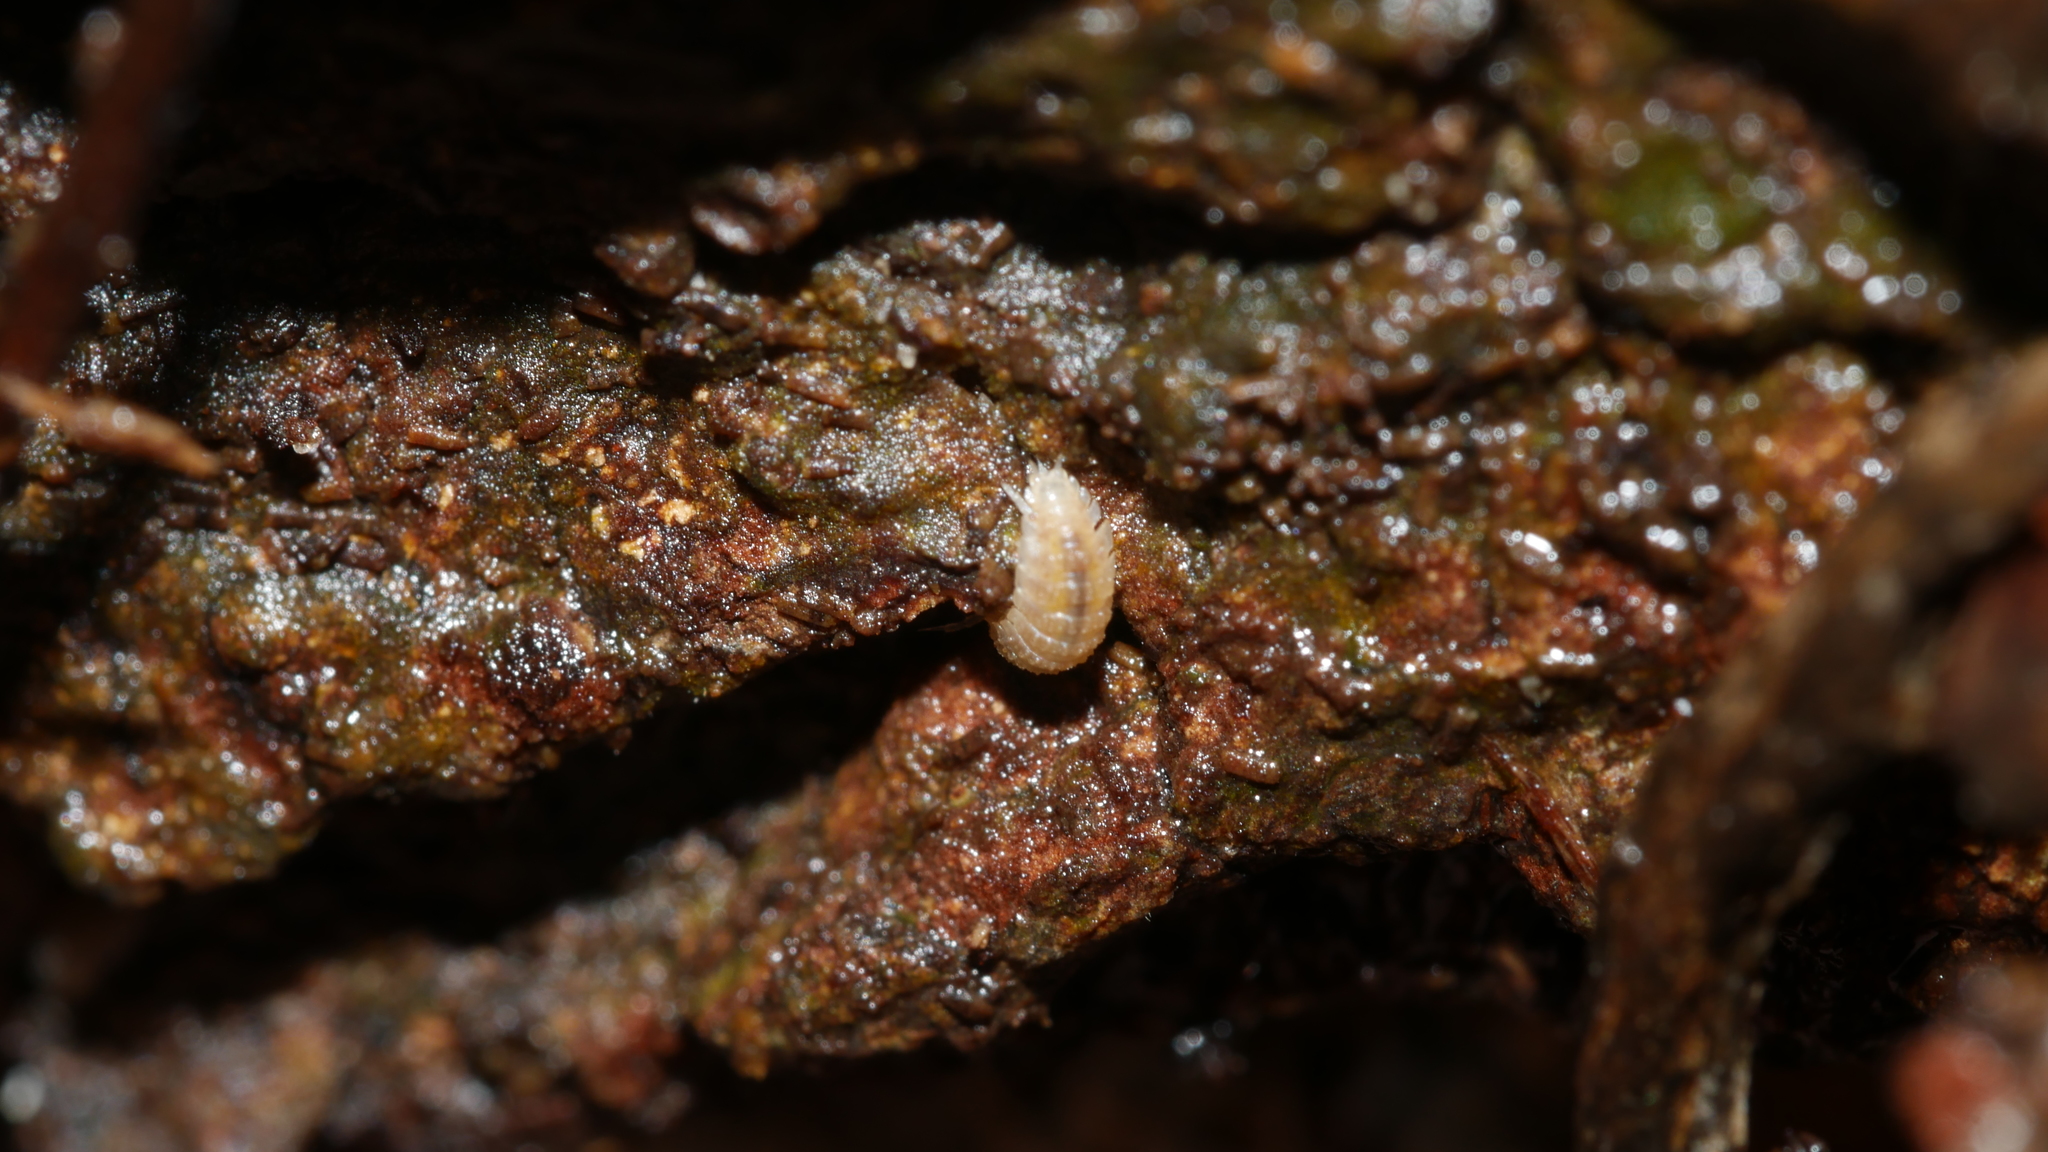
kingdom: Animalia
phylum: Arthropoda
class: Malacostraca
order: Isopoda
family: Trichoniscidae
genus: Haplophthalmus
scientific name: Haplophthalmus danicus
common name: Pillbug
